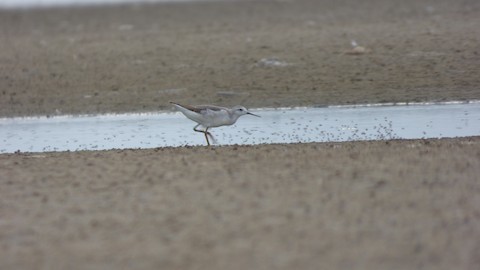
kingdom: Animalia
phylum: Chordata
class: Aves
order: Charadriiformes
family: Scolopacidae
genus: Phalaropus
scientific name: Phalaropus tricolor
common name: Wilson's phalarope
